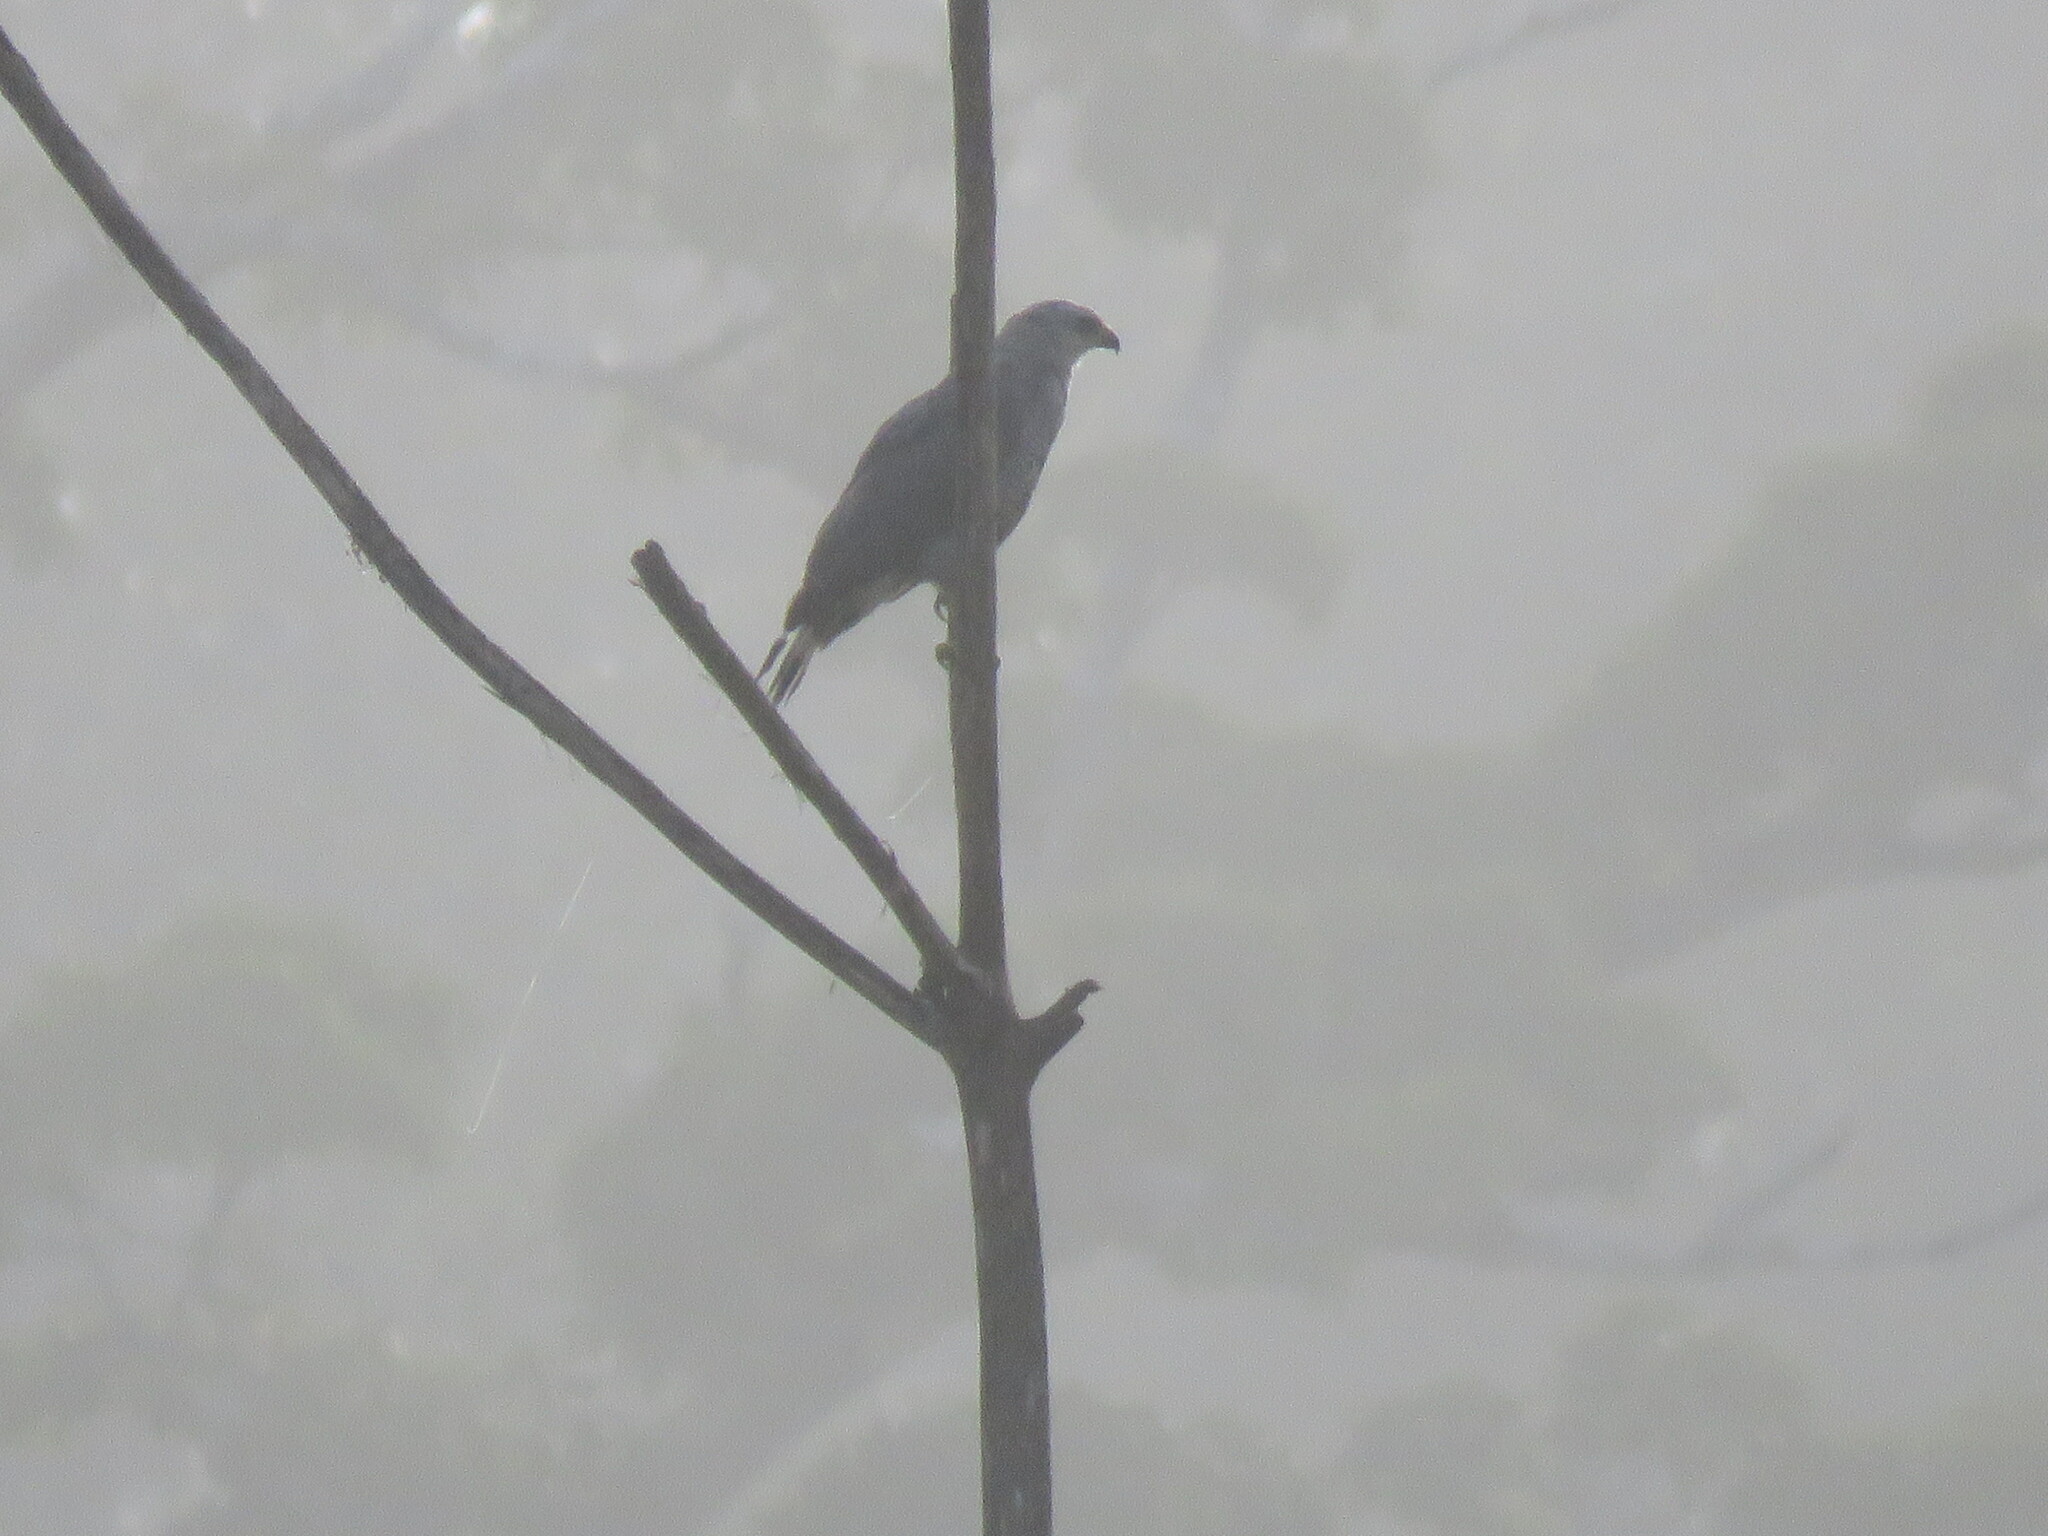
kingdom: Animalia
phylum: Chordata
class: Aves
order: Accipitriformes
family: Accipitridae
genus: Buteo
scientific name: Buteo nitidus
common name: Grey-lined hawk
